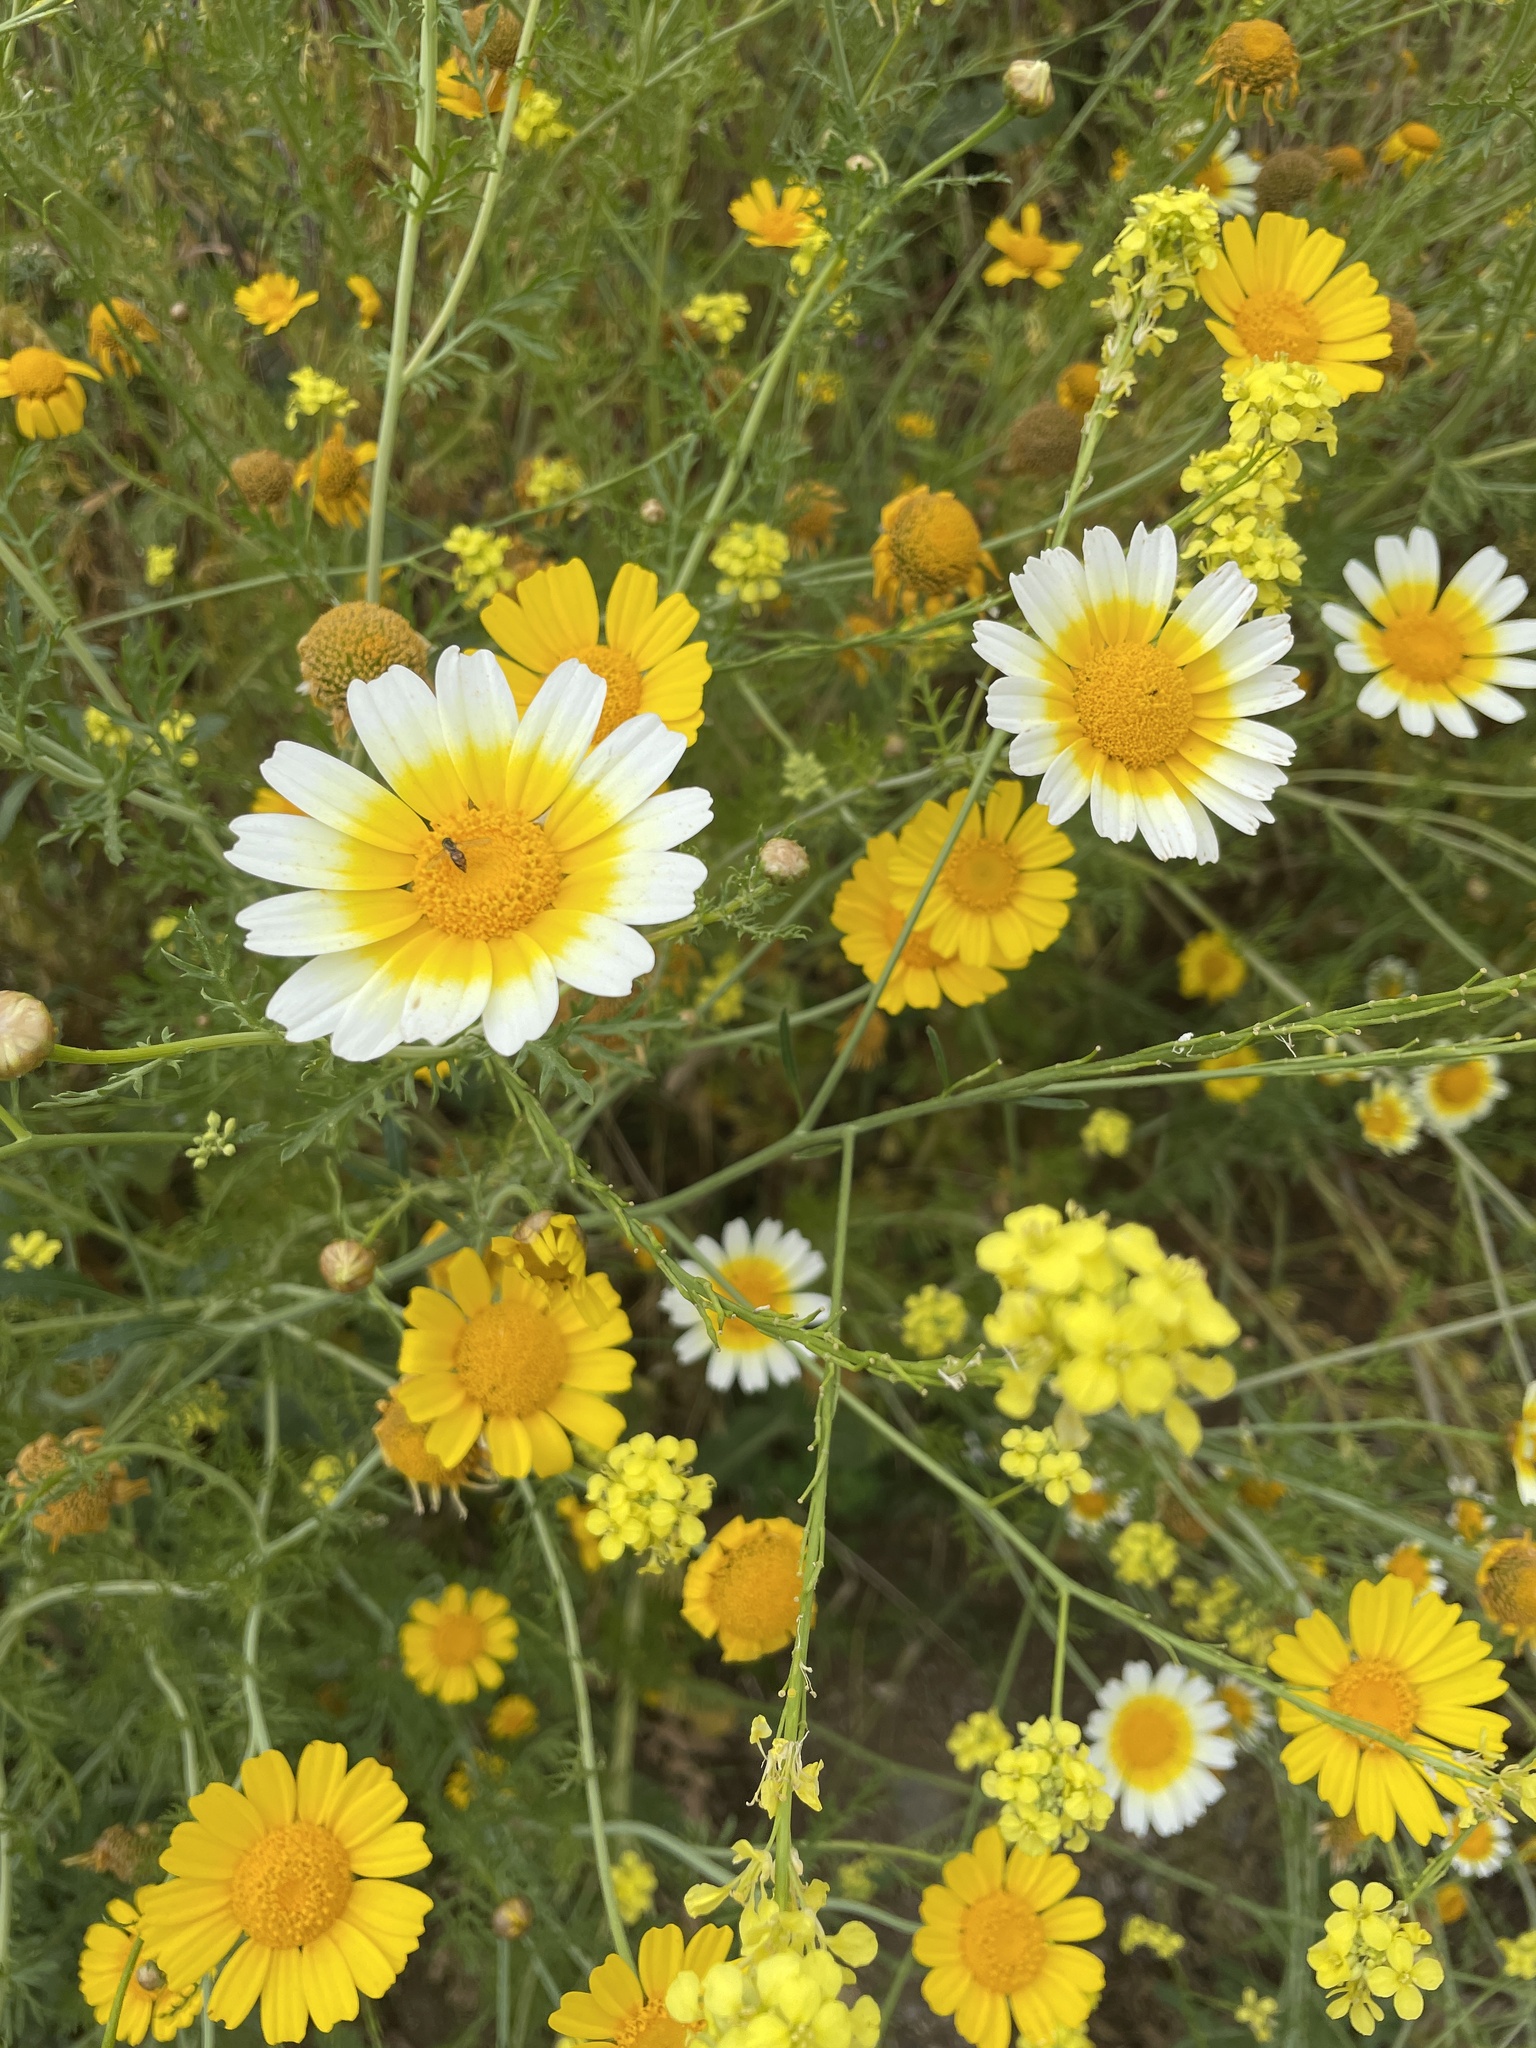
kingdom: Plantae
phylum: Tracheophyta
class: Magnoliopsida
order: Asterales
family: Asteraceae
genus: Glebionis
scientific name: Glebionis coronaria
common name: Crowndaisy
